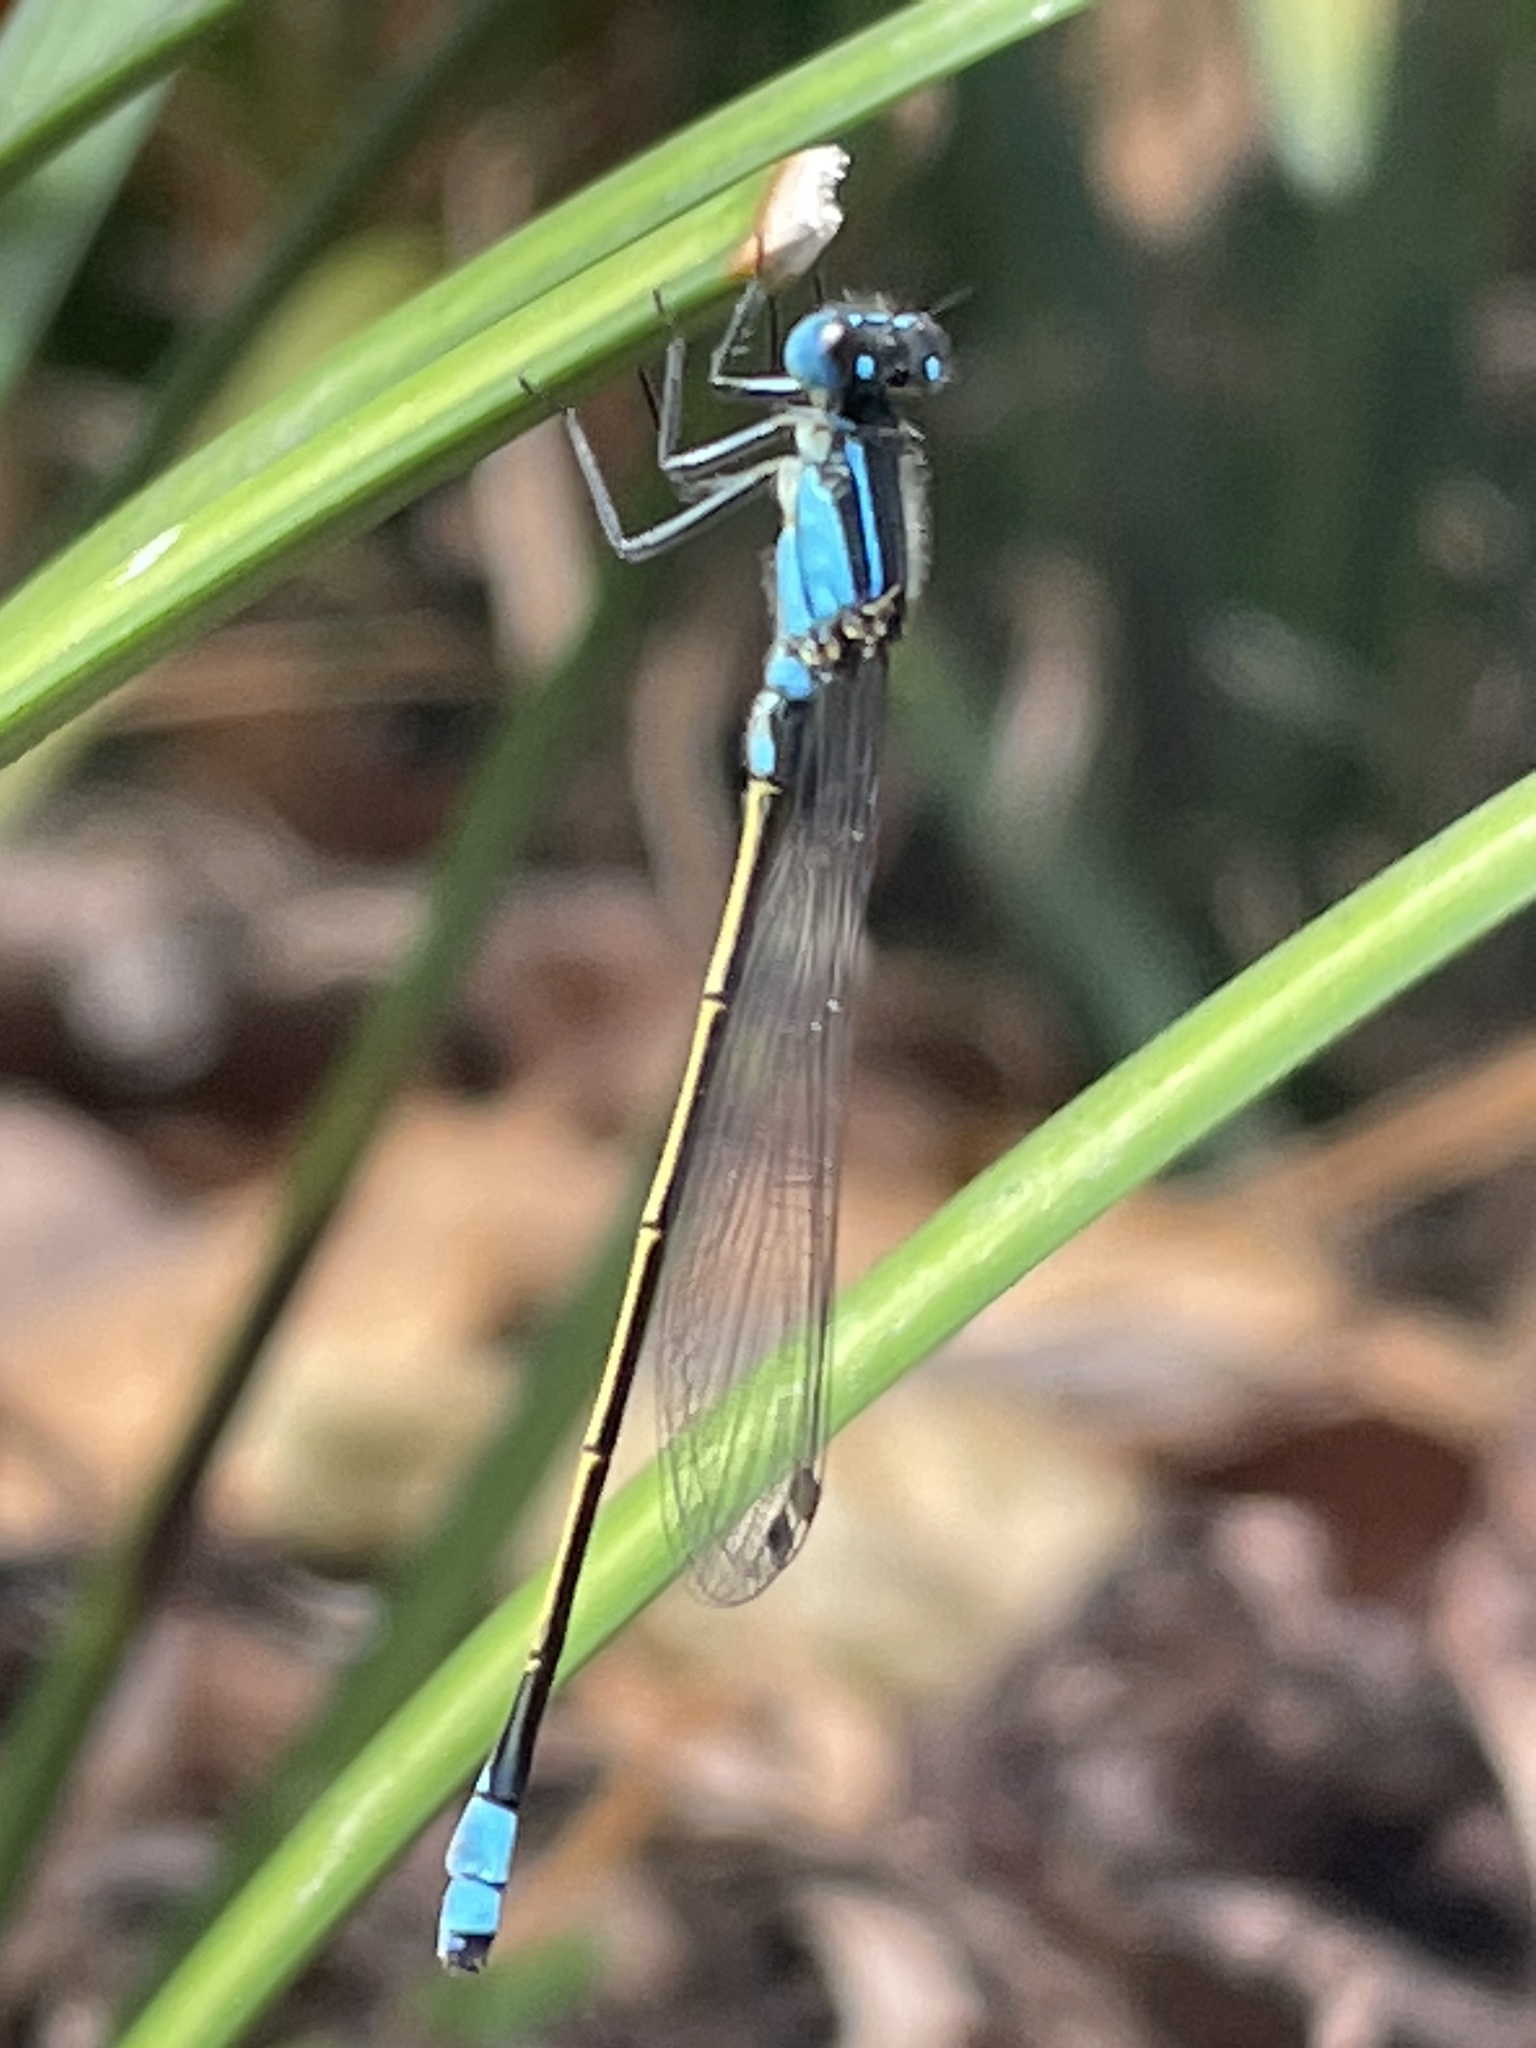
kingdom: Animalia
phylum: Arthropoda
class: Insecta
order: Odonata
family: Coenagrionidae
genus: Ischnura
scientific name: Ischnura heterosticta
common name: Common bluetail
